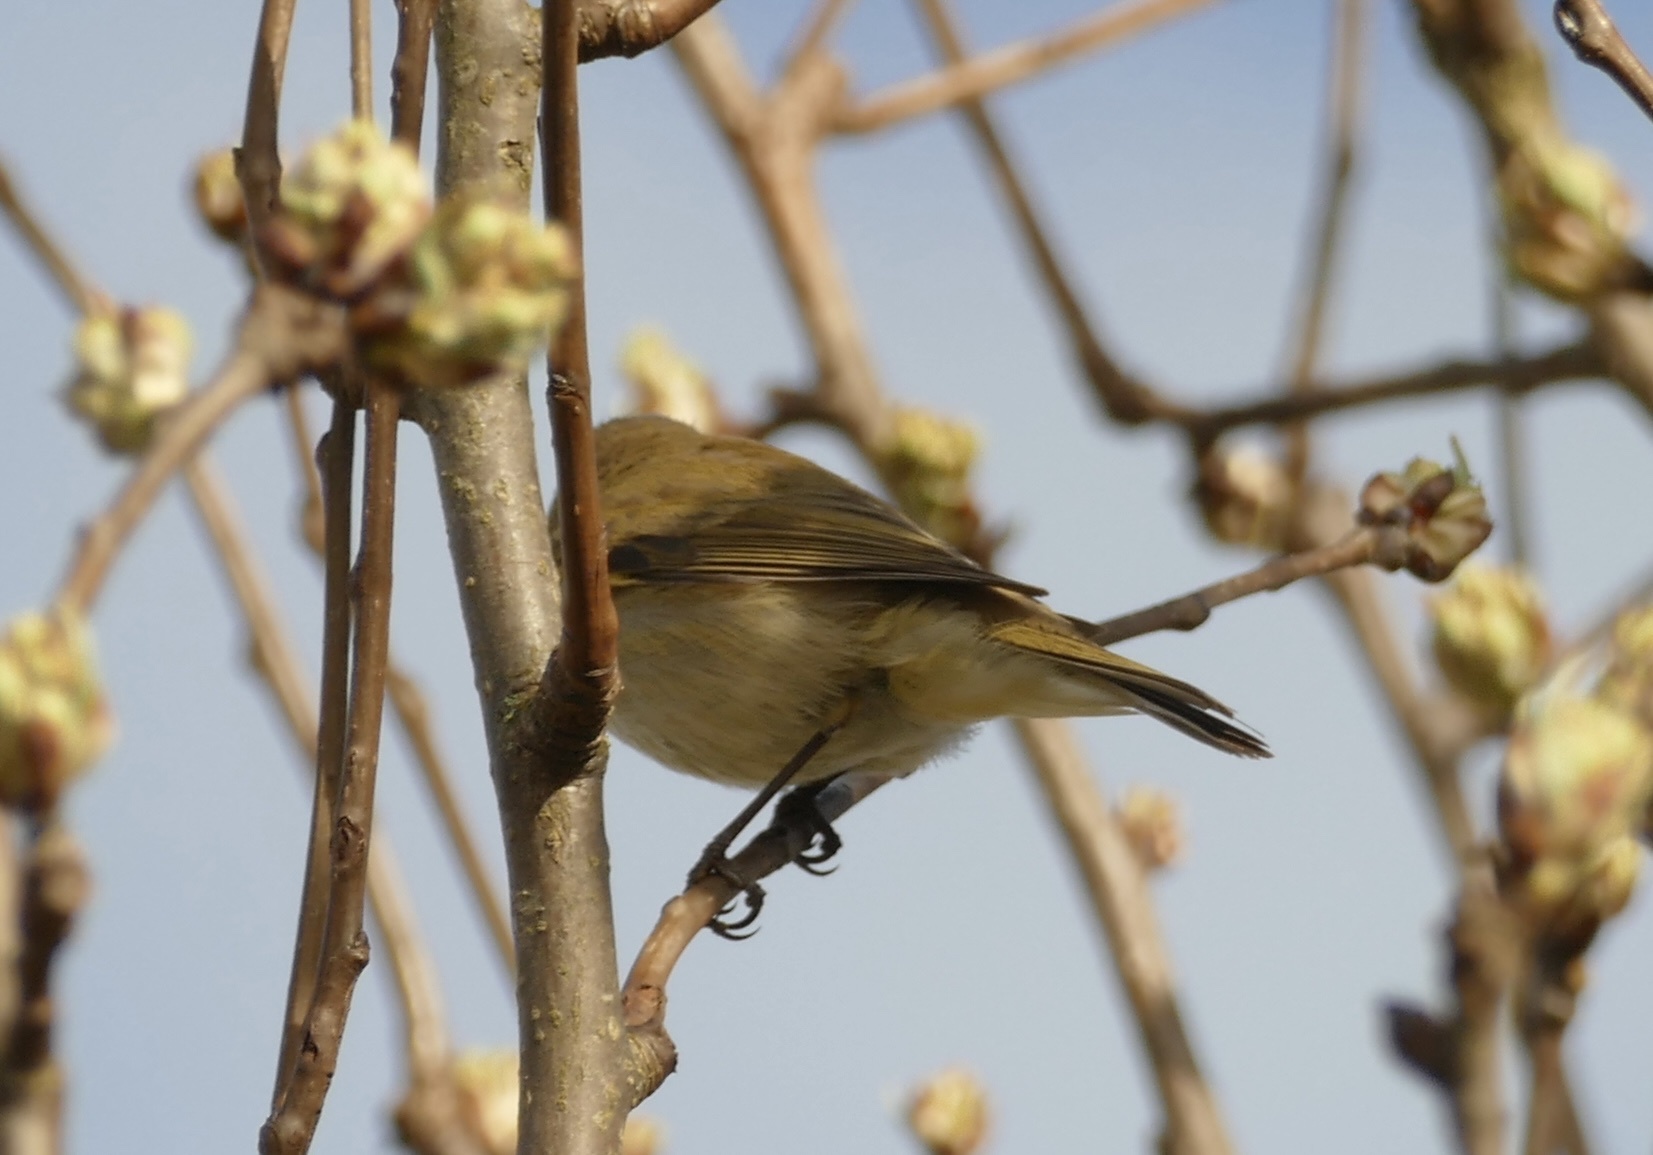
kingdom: Animalia
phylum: Chordata
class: Aves
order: Passeriformes
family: Phylloscopidae
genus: Phylloscopus
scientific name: Phylloscopus collybita
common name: Common chiffchaff
